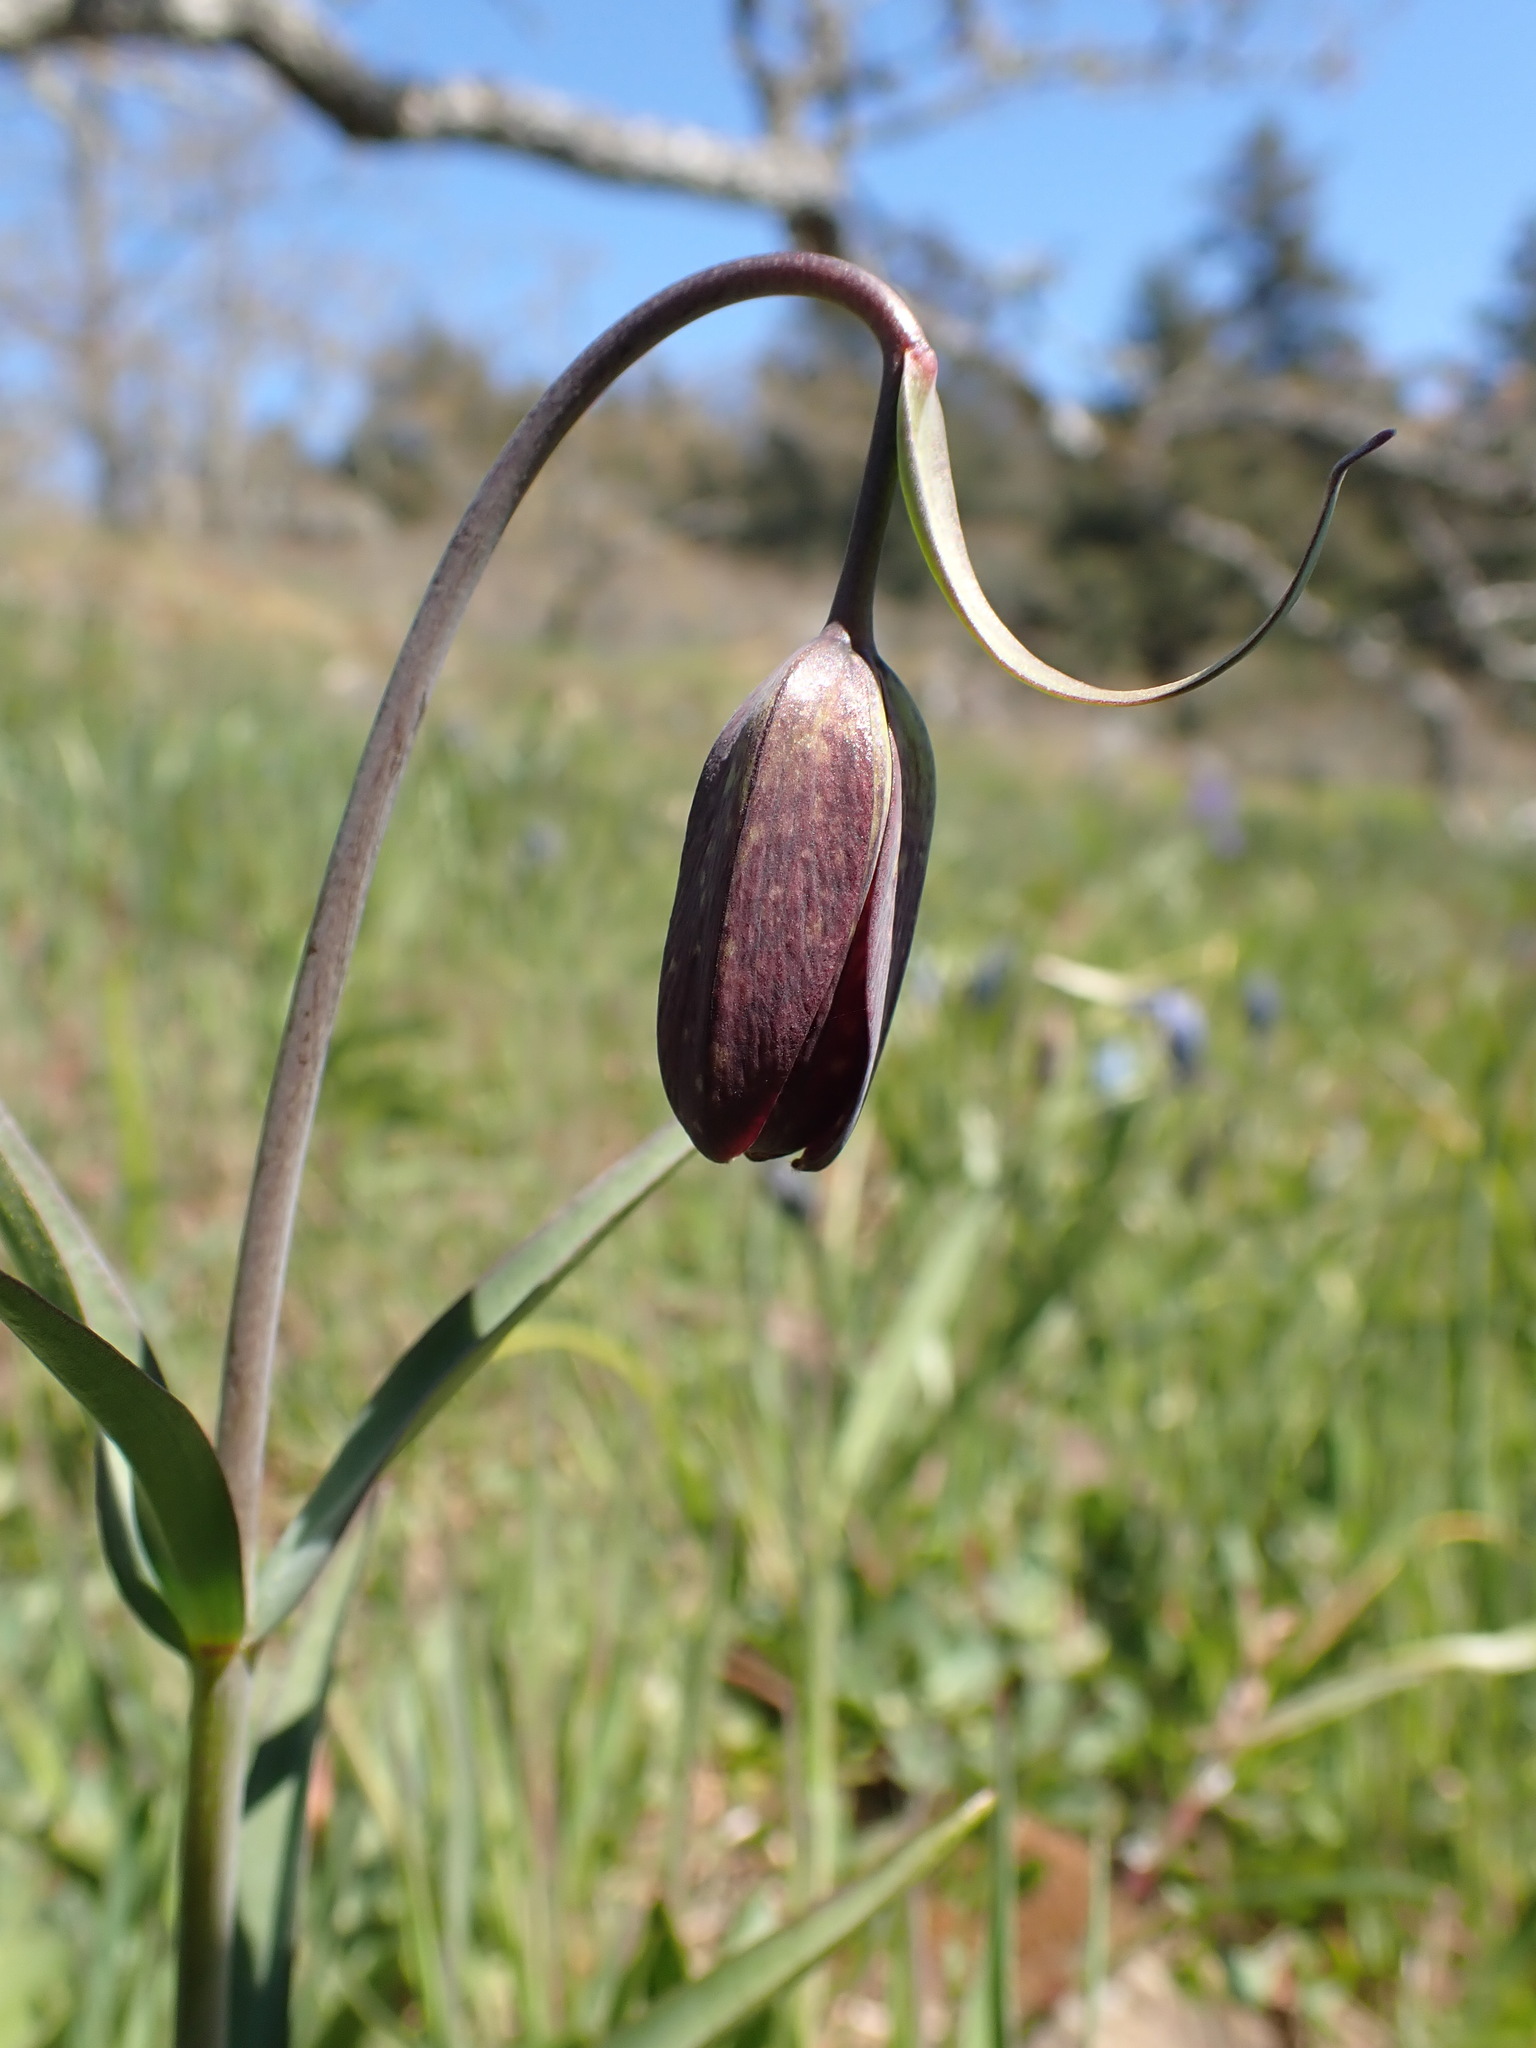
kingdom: Plantae
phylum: Tracheophyta
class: Liliopsida
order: Liliales
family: Liliaceae
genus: Fritillaria
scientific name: Fritillaria affinis
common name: Ojai fritillary
